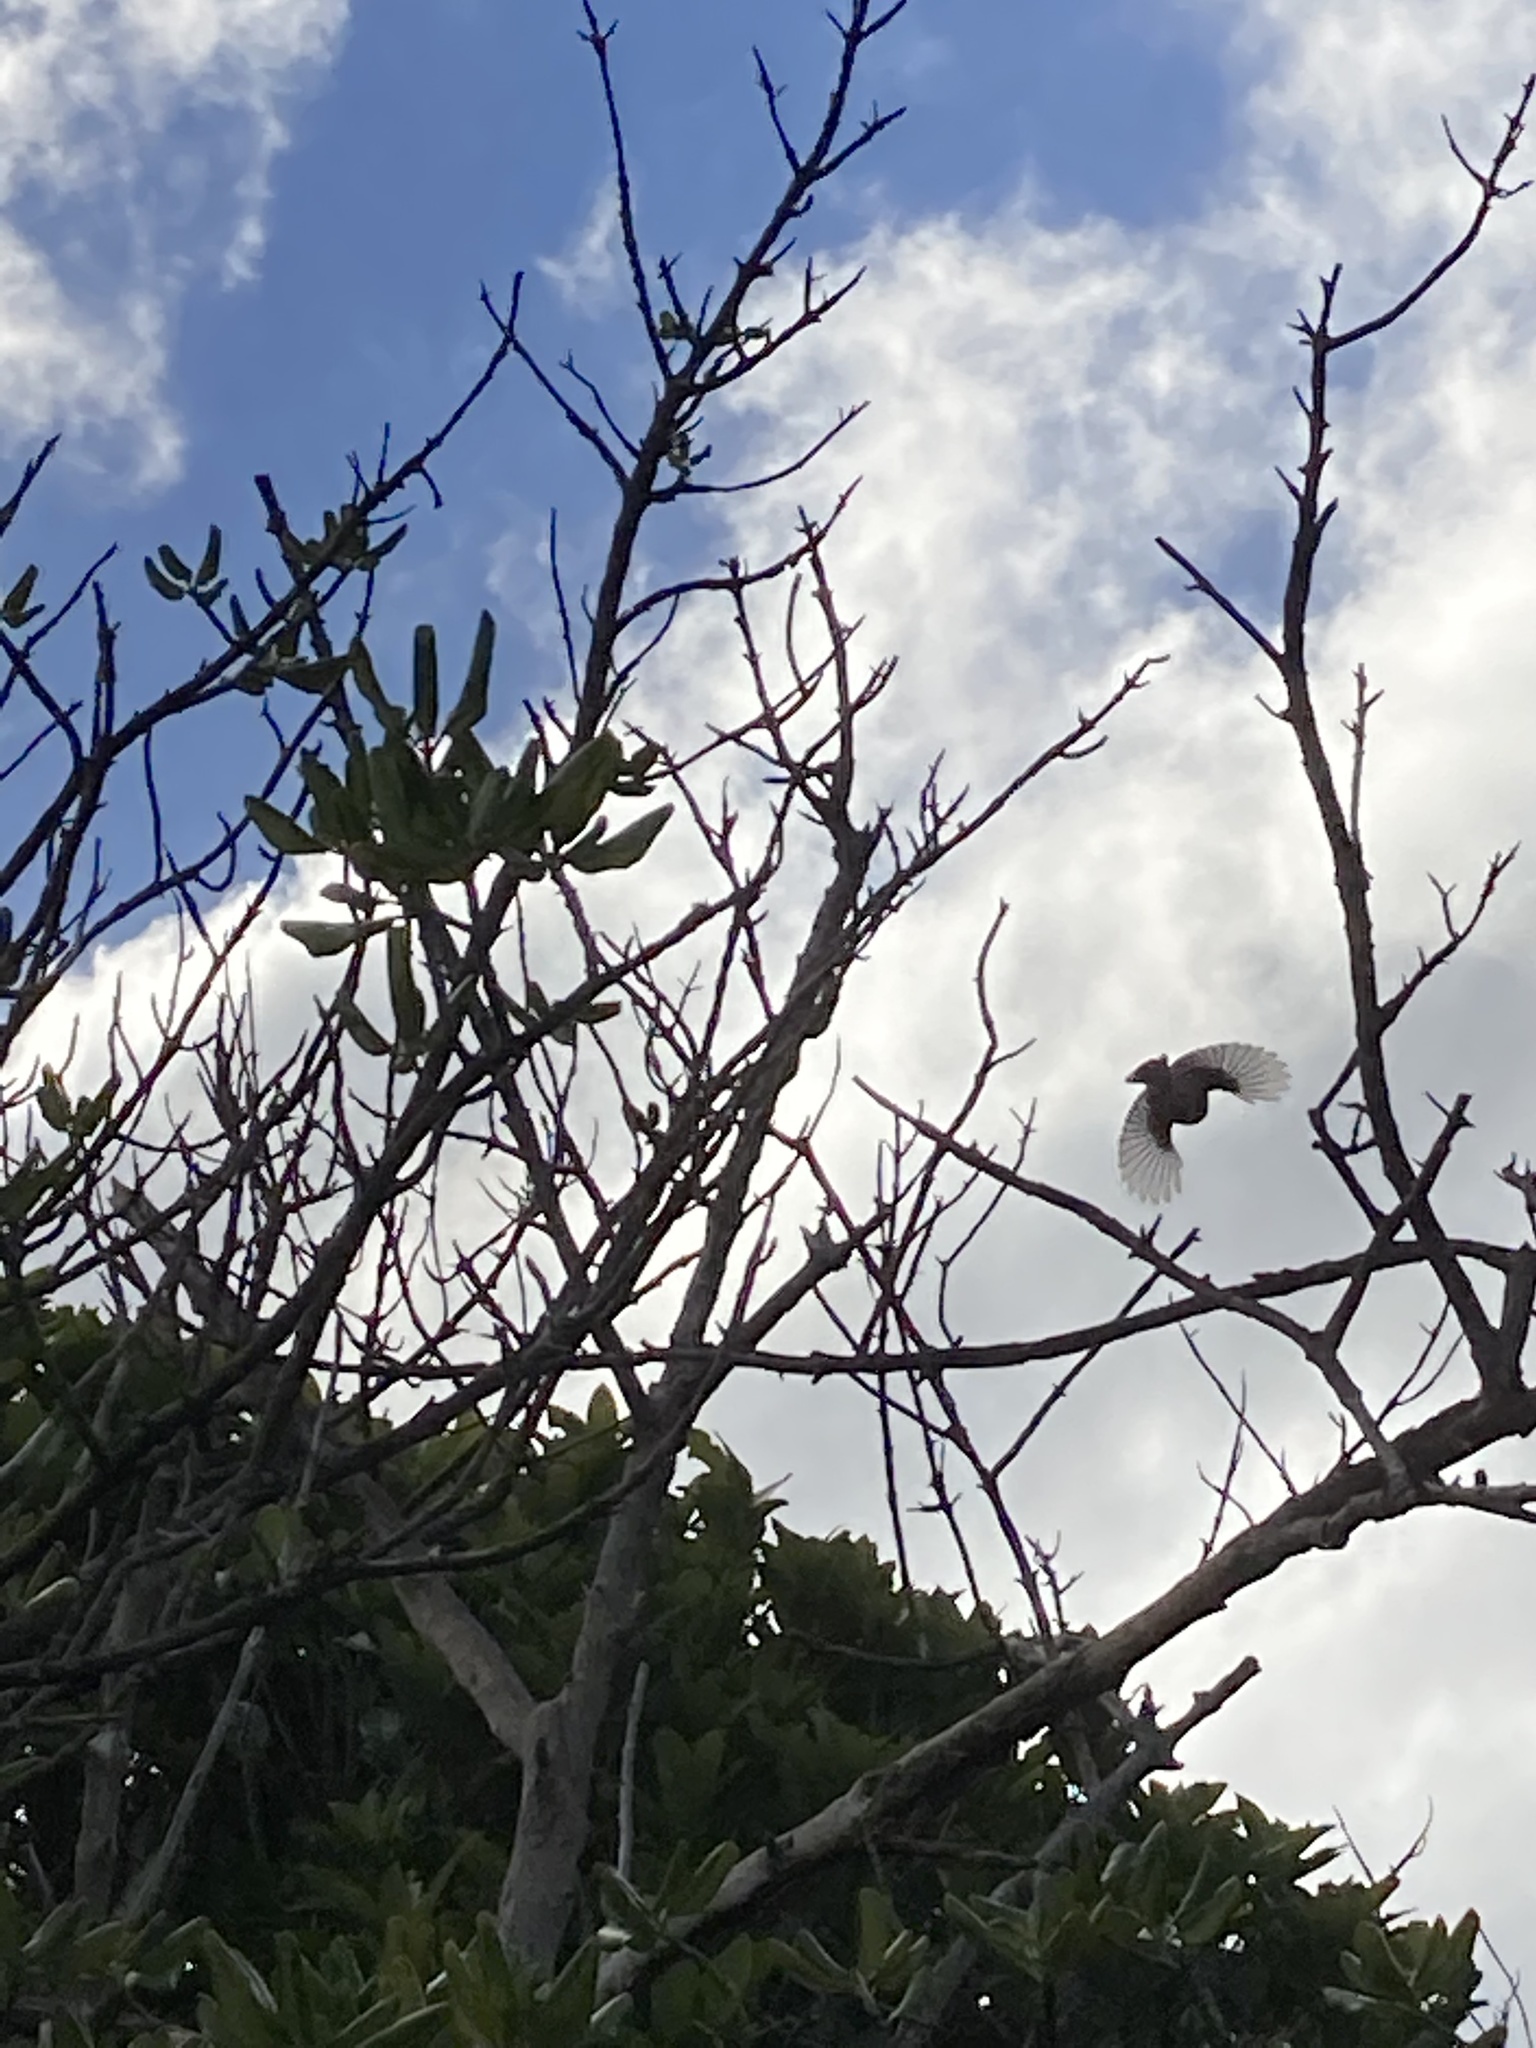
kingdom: Animalia
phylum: Chordata
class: Aves
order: Passeriformes
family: Rhipiduridae
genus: Rhipidura
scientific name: Rhipidura fuliginosa
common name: New zealand fantail
